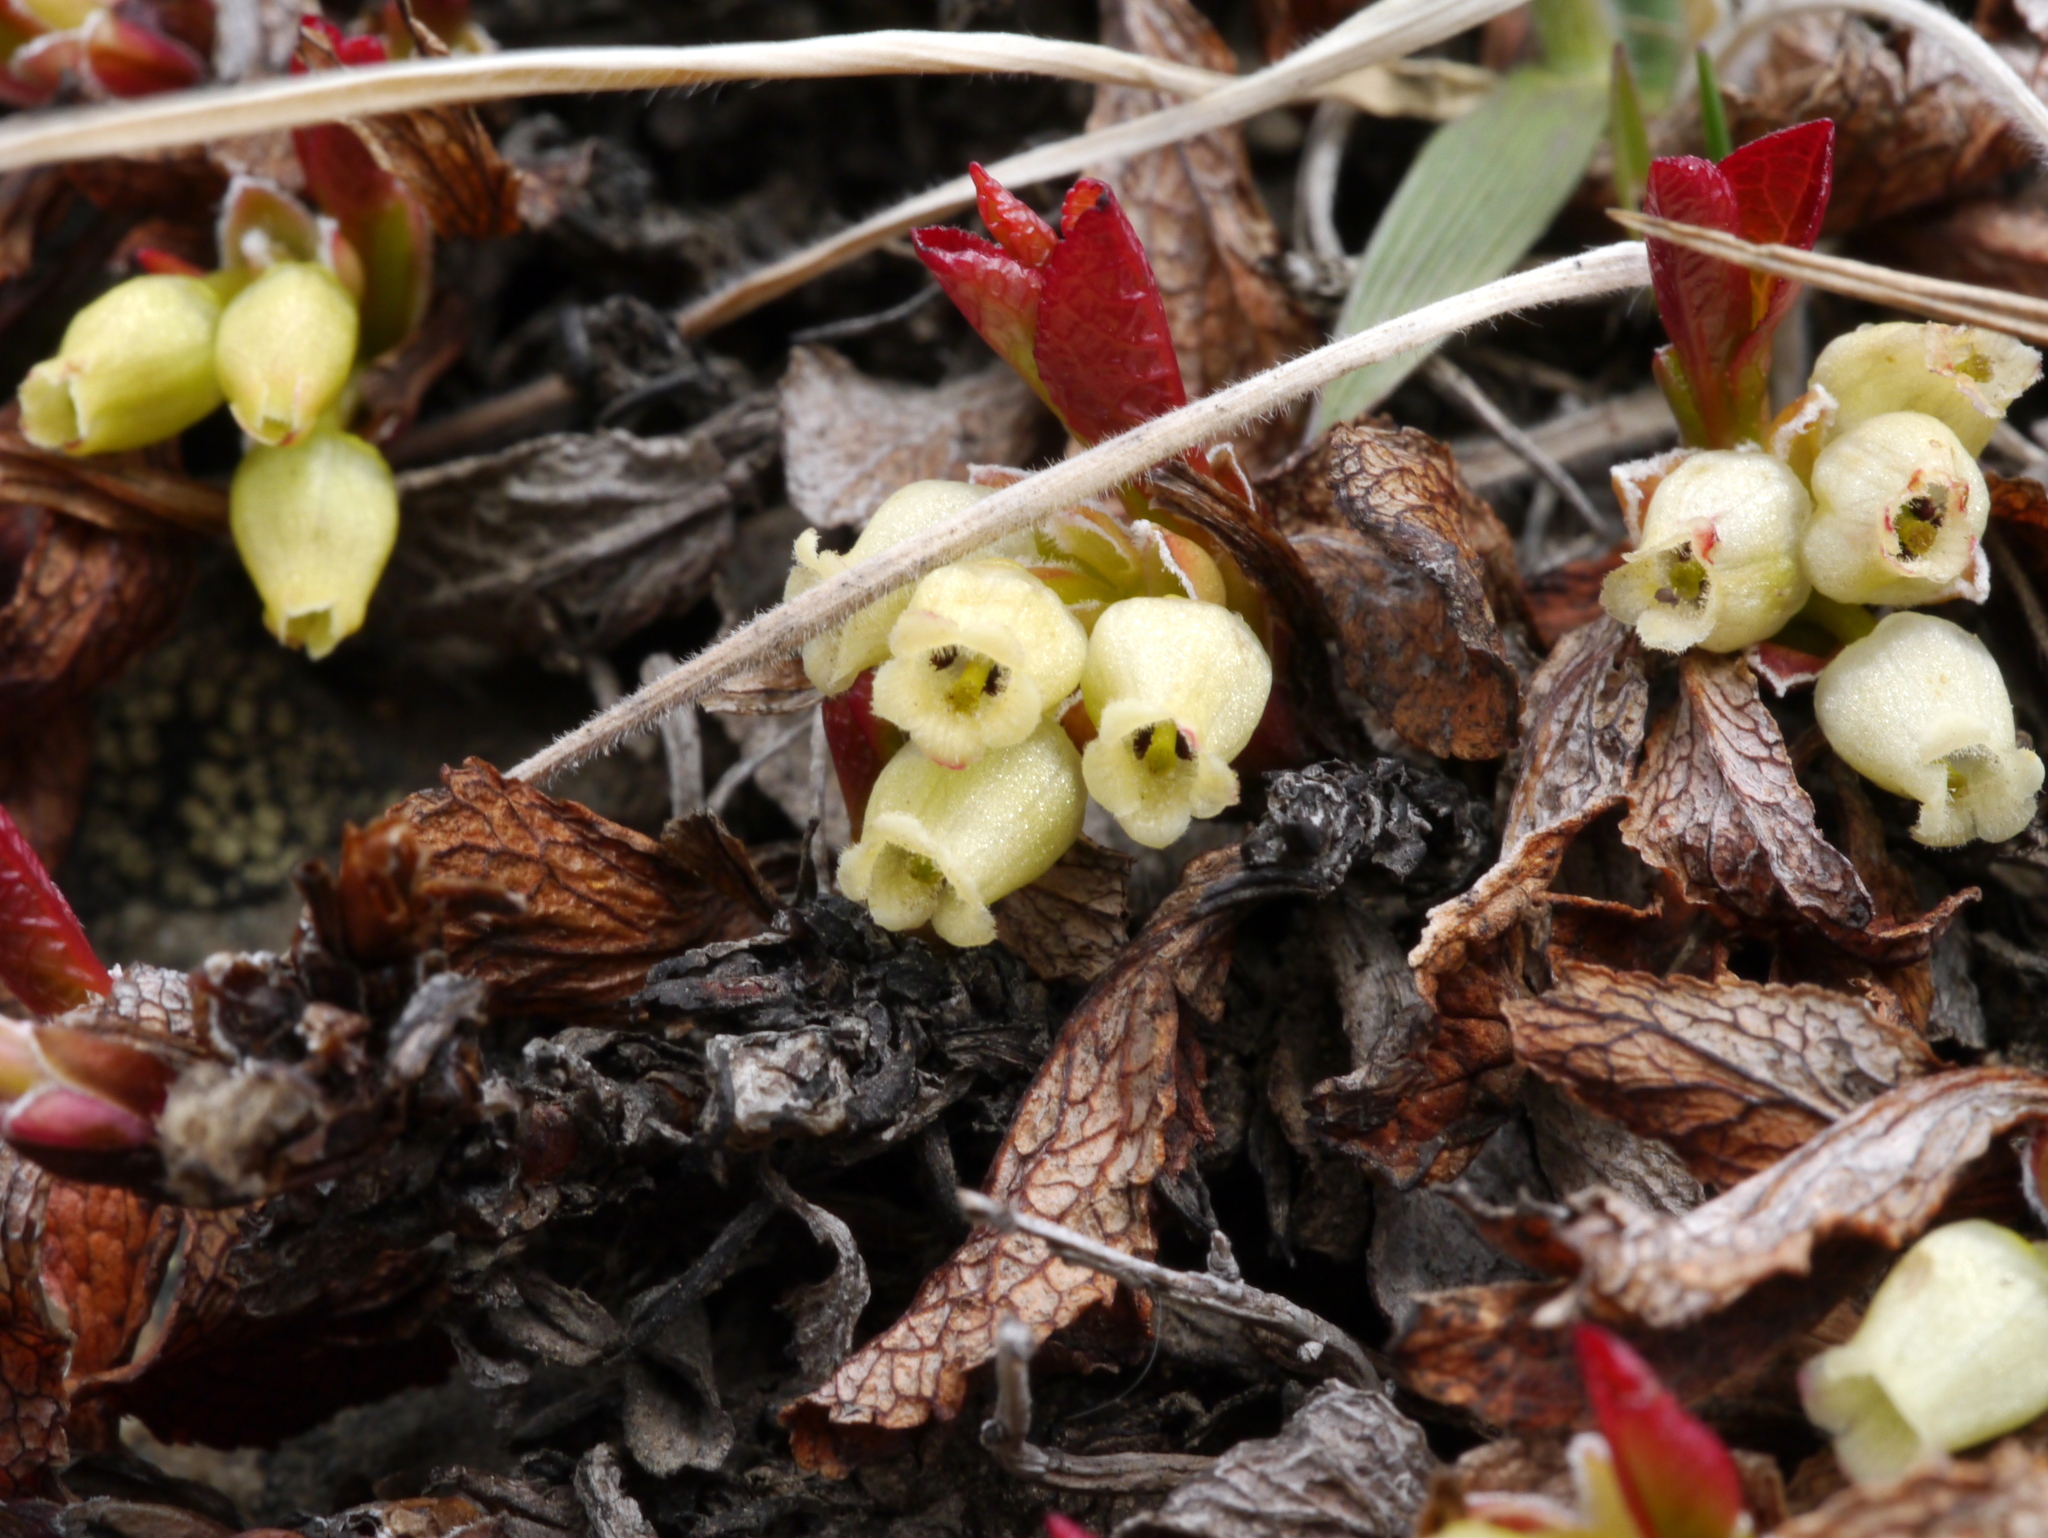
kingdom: Plantae
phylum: Tracheophyta
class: Magnoliopsida
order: Ericales
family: Ericaceae
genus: Arctostaphylos
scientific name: Arctostaphylos alpinus
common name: Alpine bearberry
